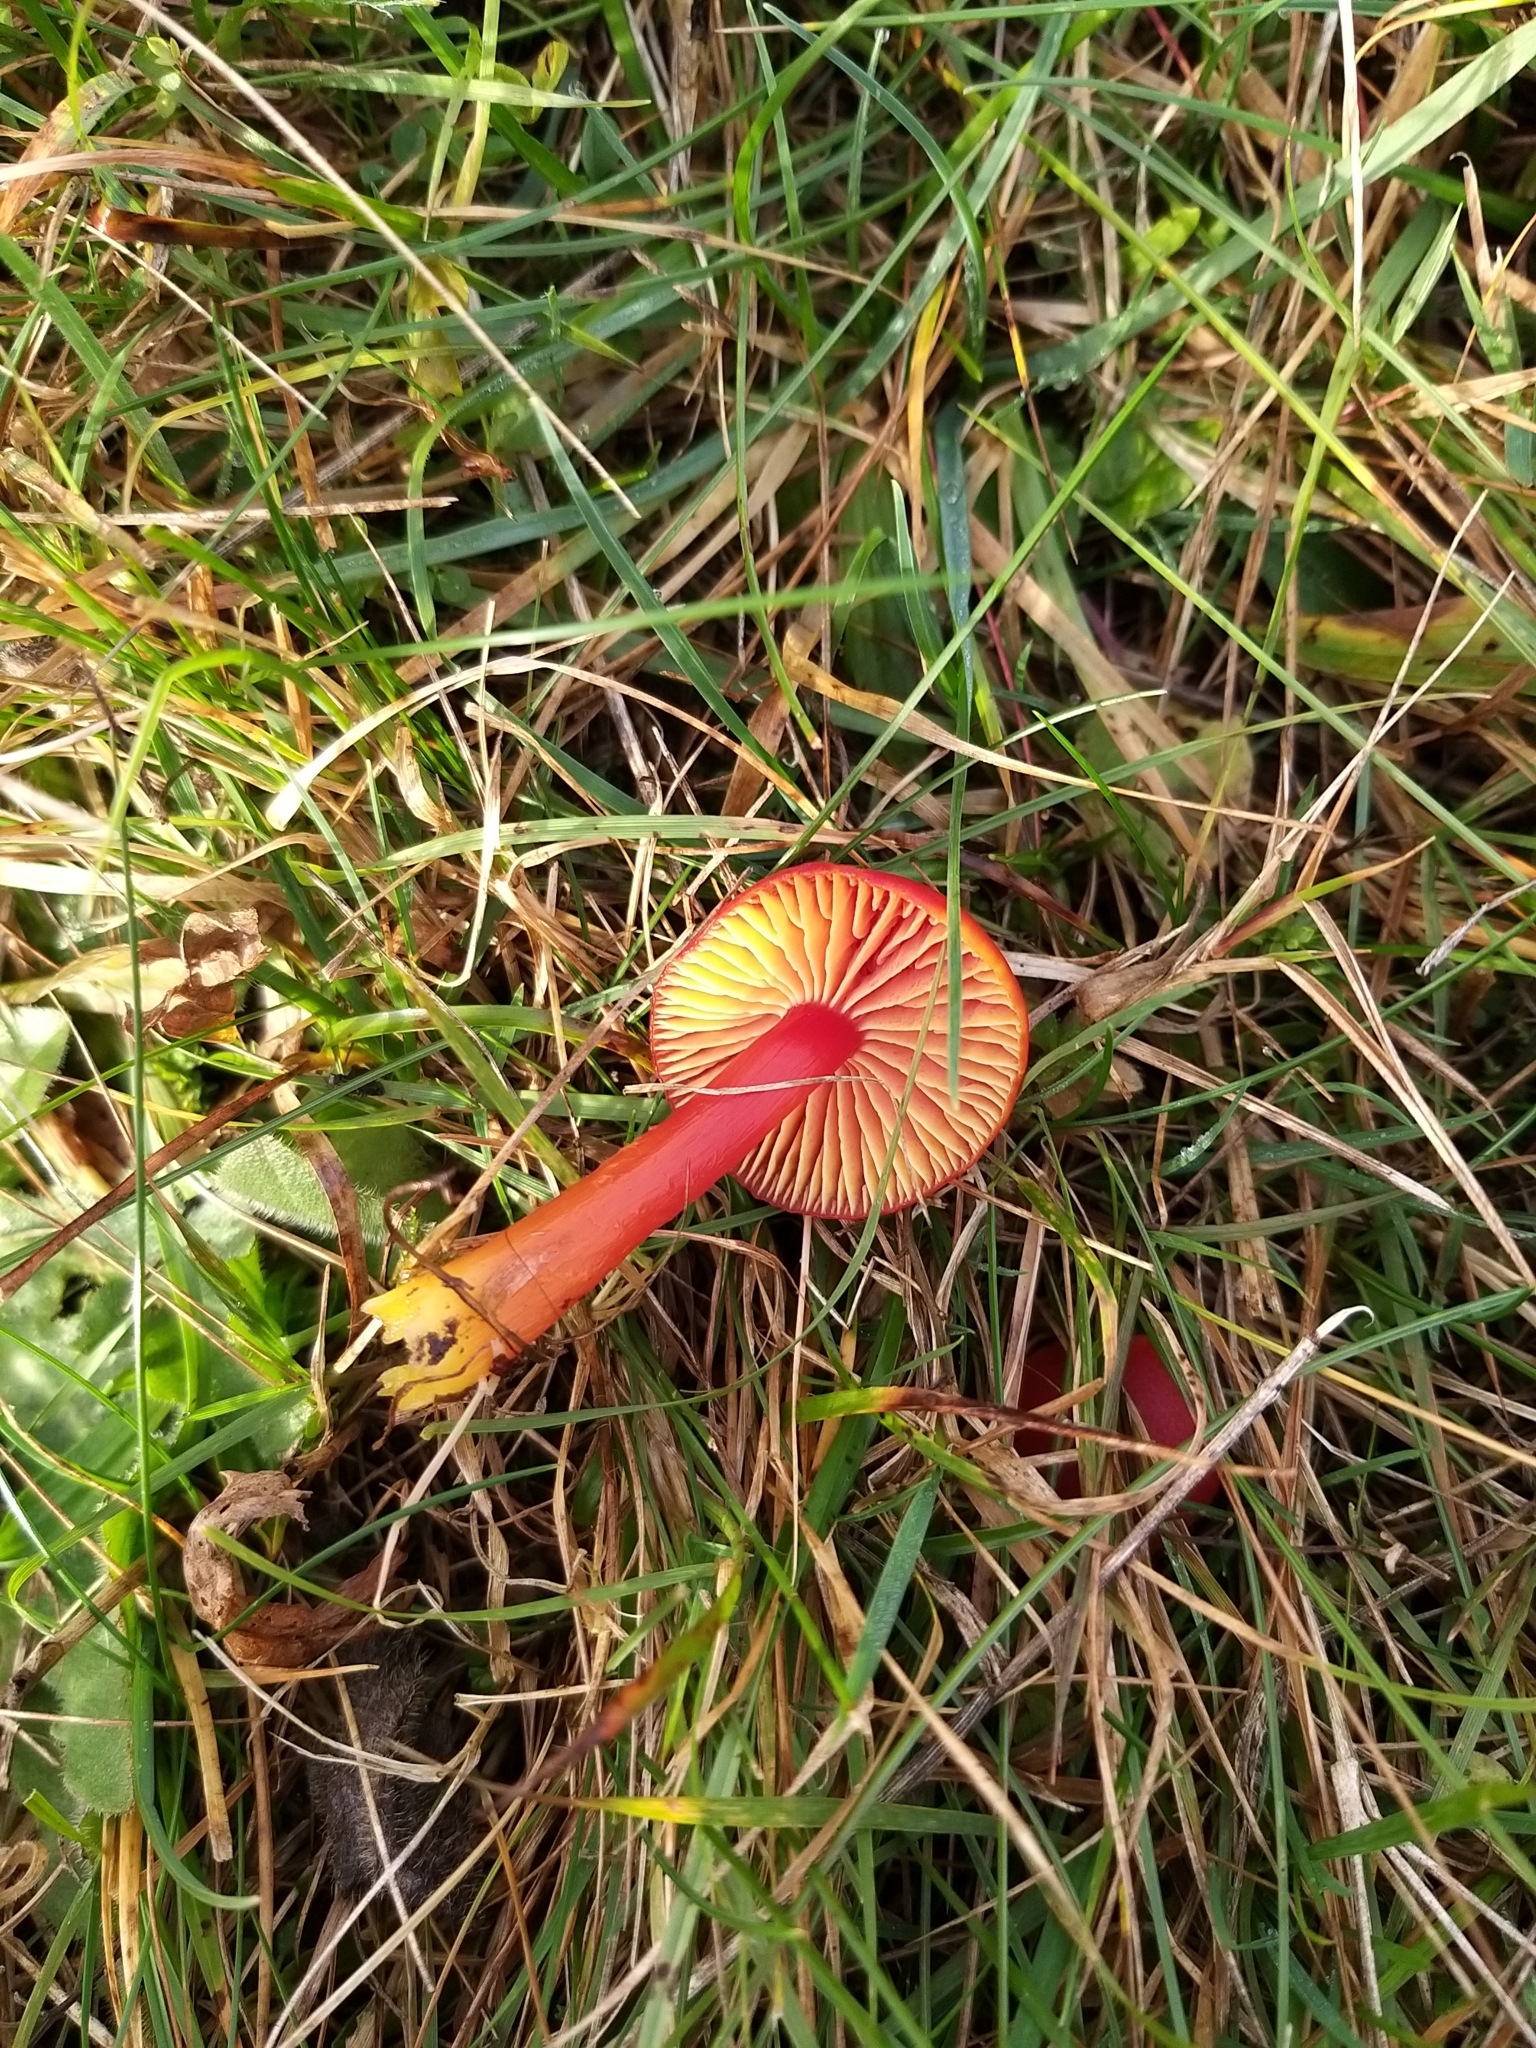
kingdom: Fungi
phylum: Basidiomycota
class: Agaricomycetes
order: Agaricales
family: Hygrophoraceae
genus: Hygrocybe
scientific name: Hygrocybe coccinea
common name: Scarlet hood
